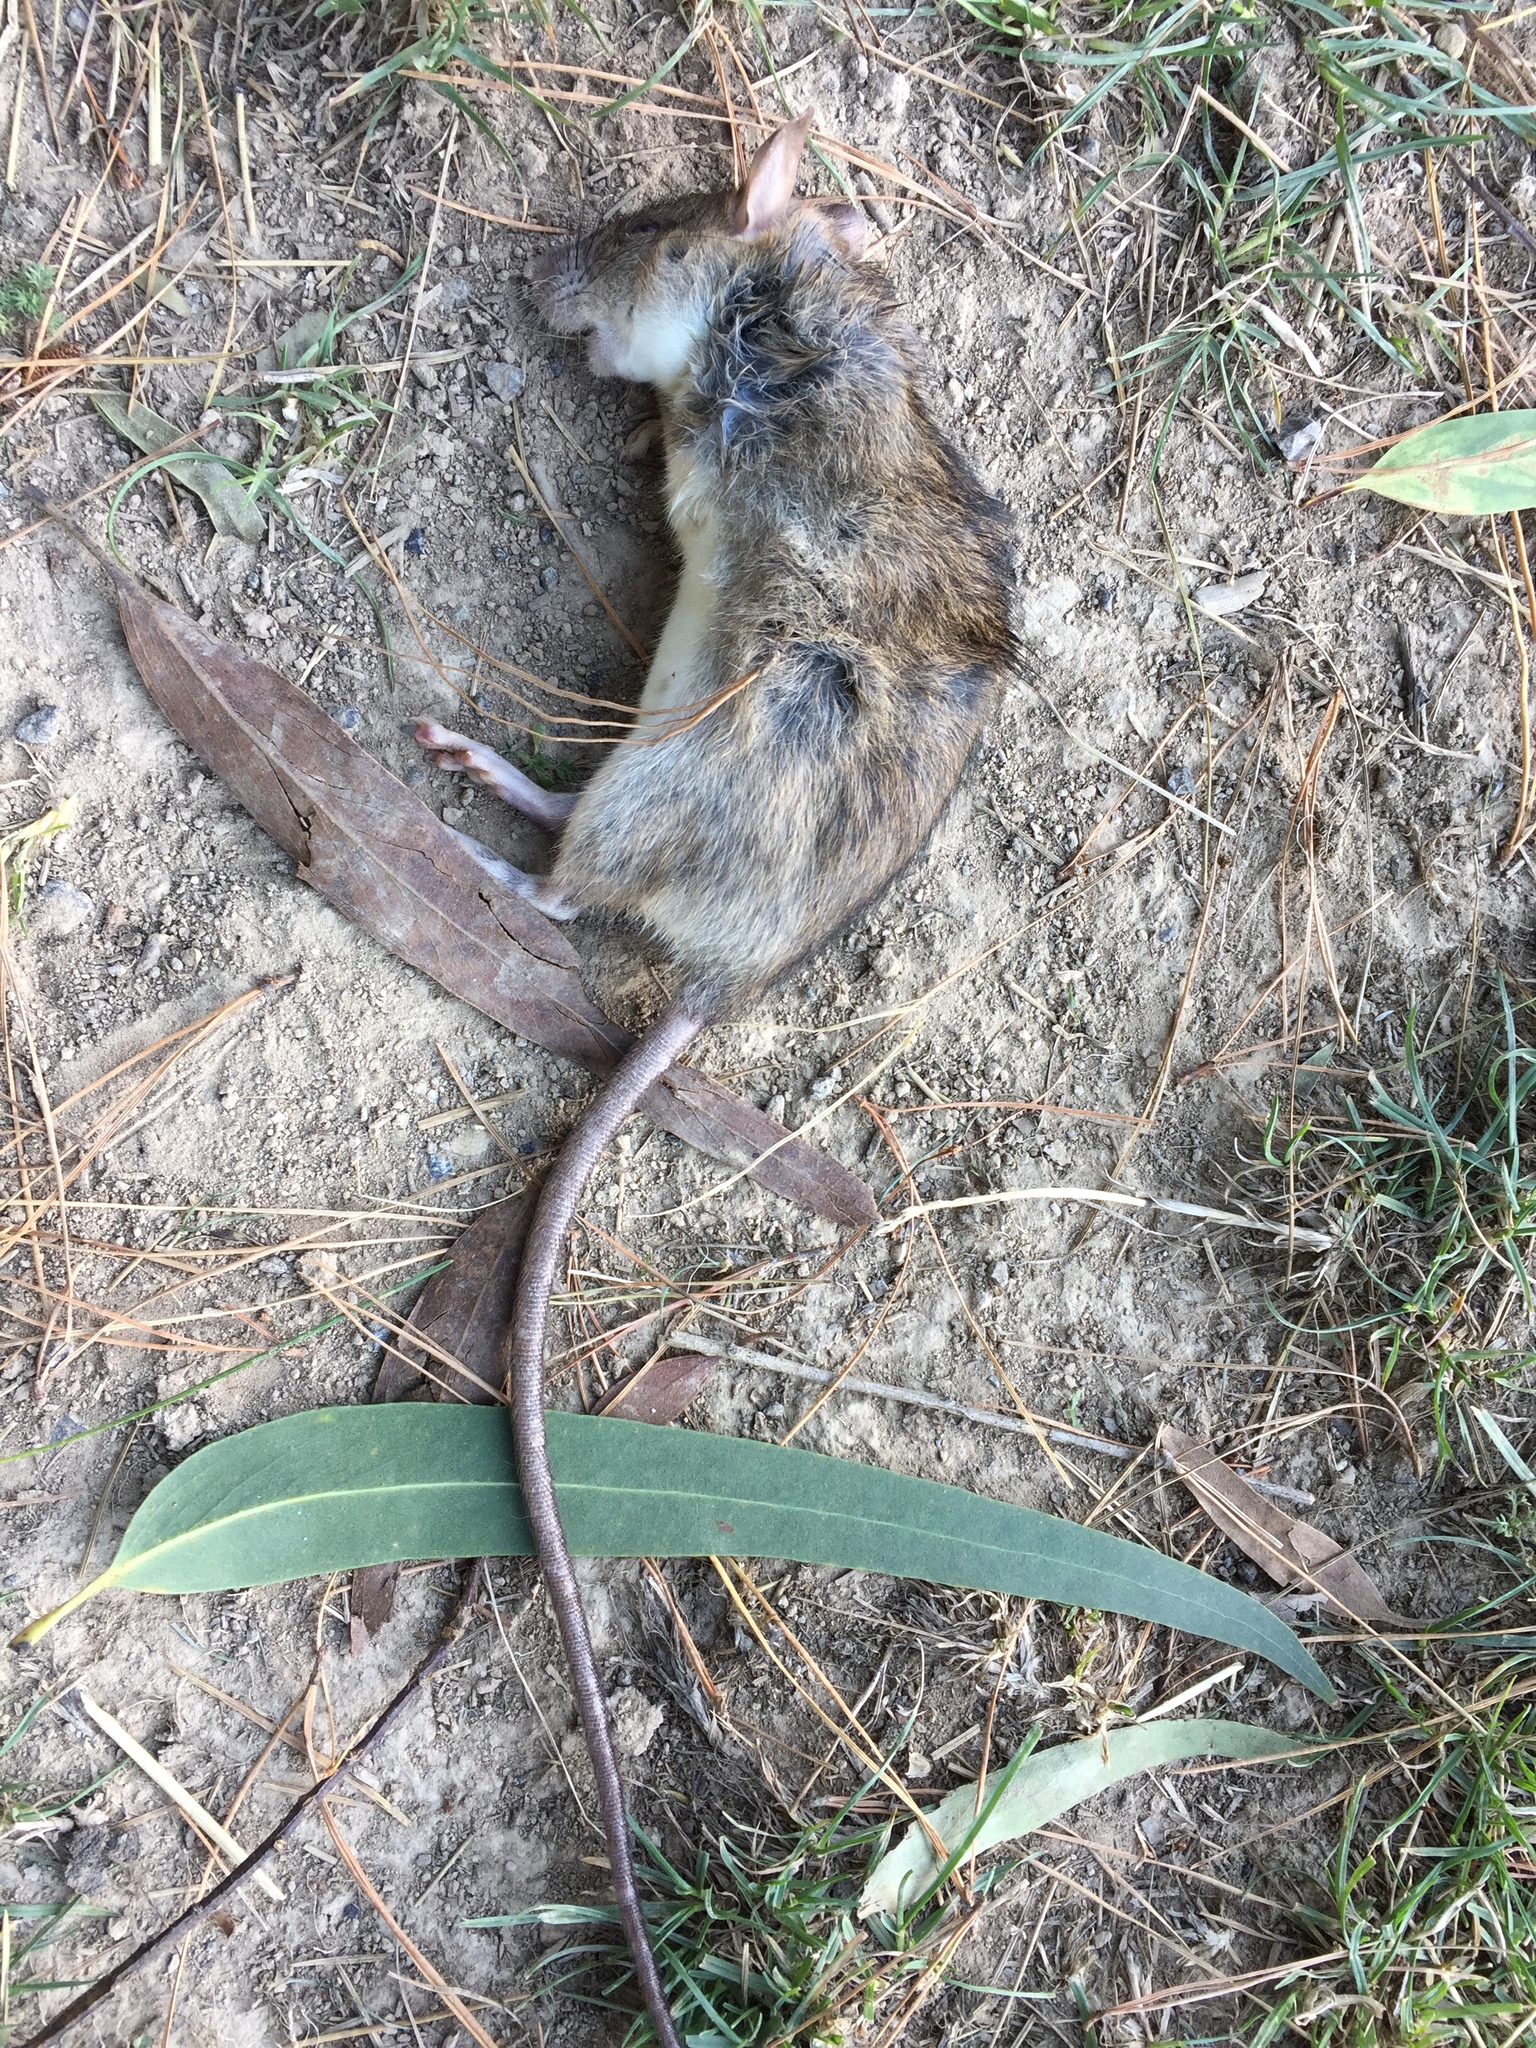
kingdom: Animalia
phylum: Chordata
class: Mammalia
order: Rodentia
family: Muridae
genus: Rattus
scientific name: Rattus rattus
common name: Black rat
